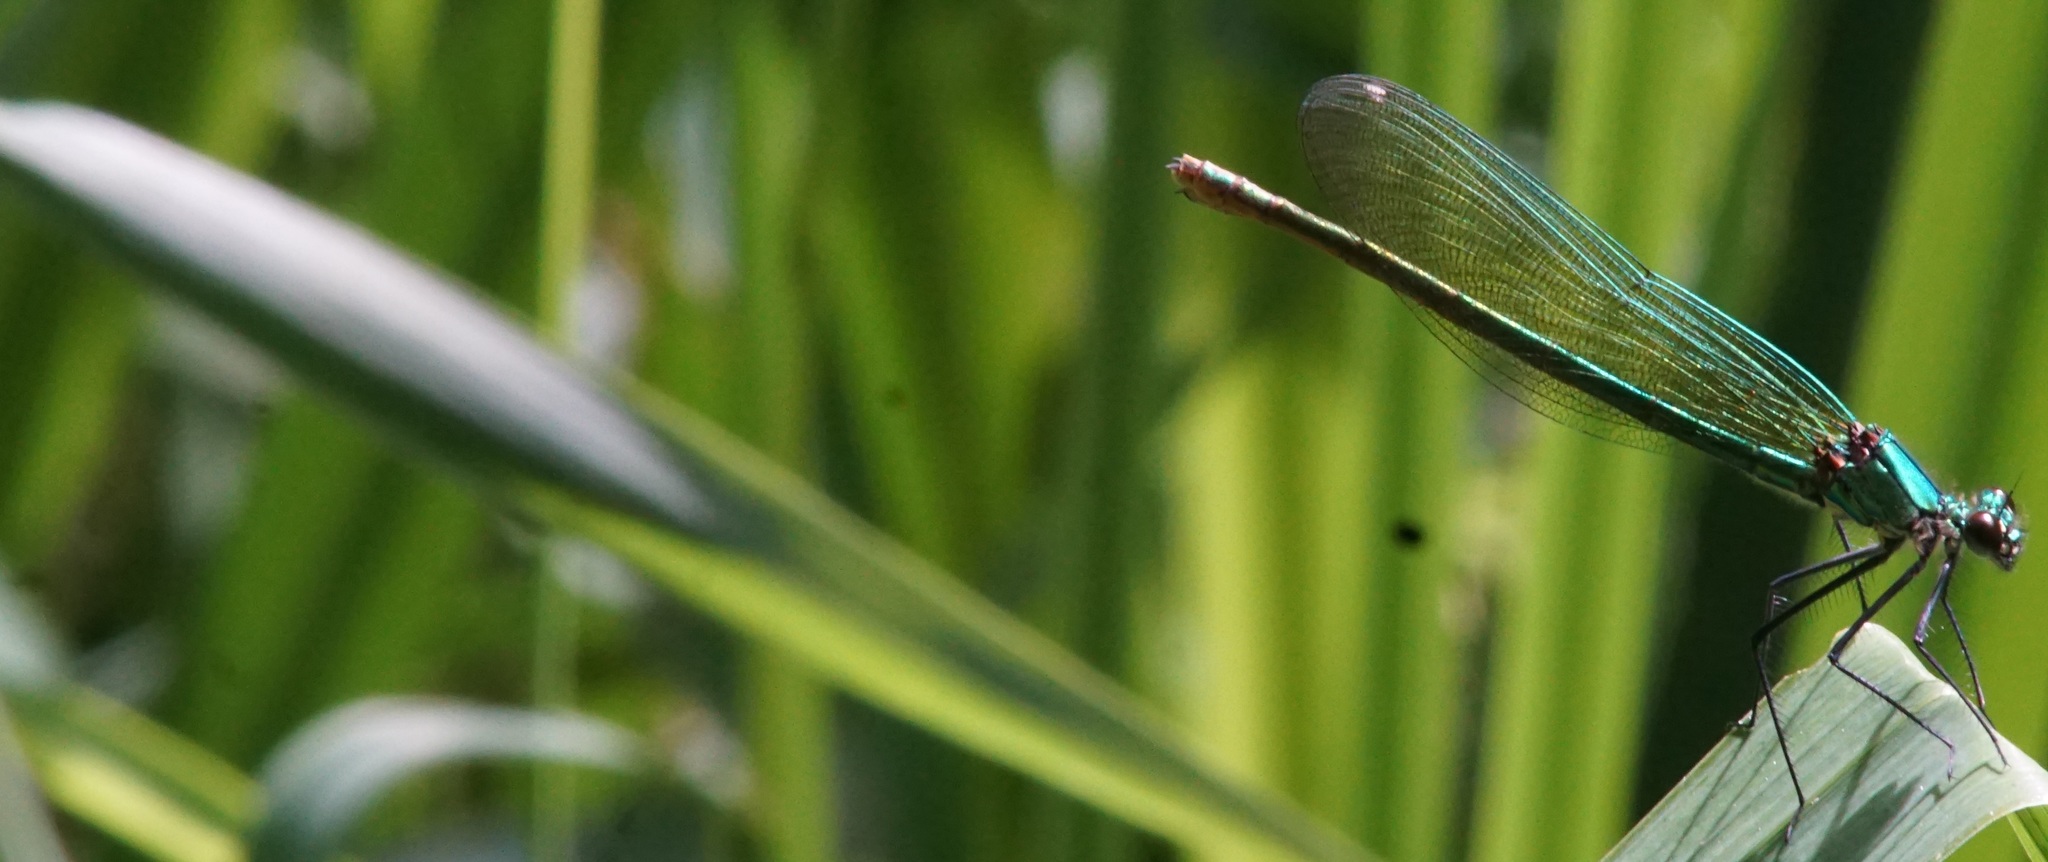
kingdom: Animalia
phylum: Arthropoda
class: Insecta
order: Odonata
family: Calopterygidae
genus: Calopteryx
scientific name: Calopteryx splendens
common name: Banded demoiselle
